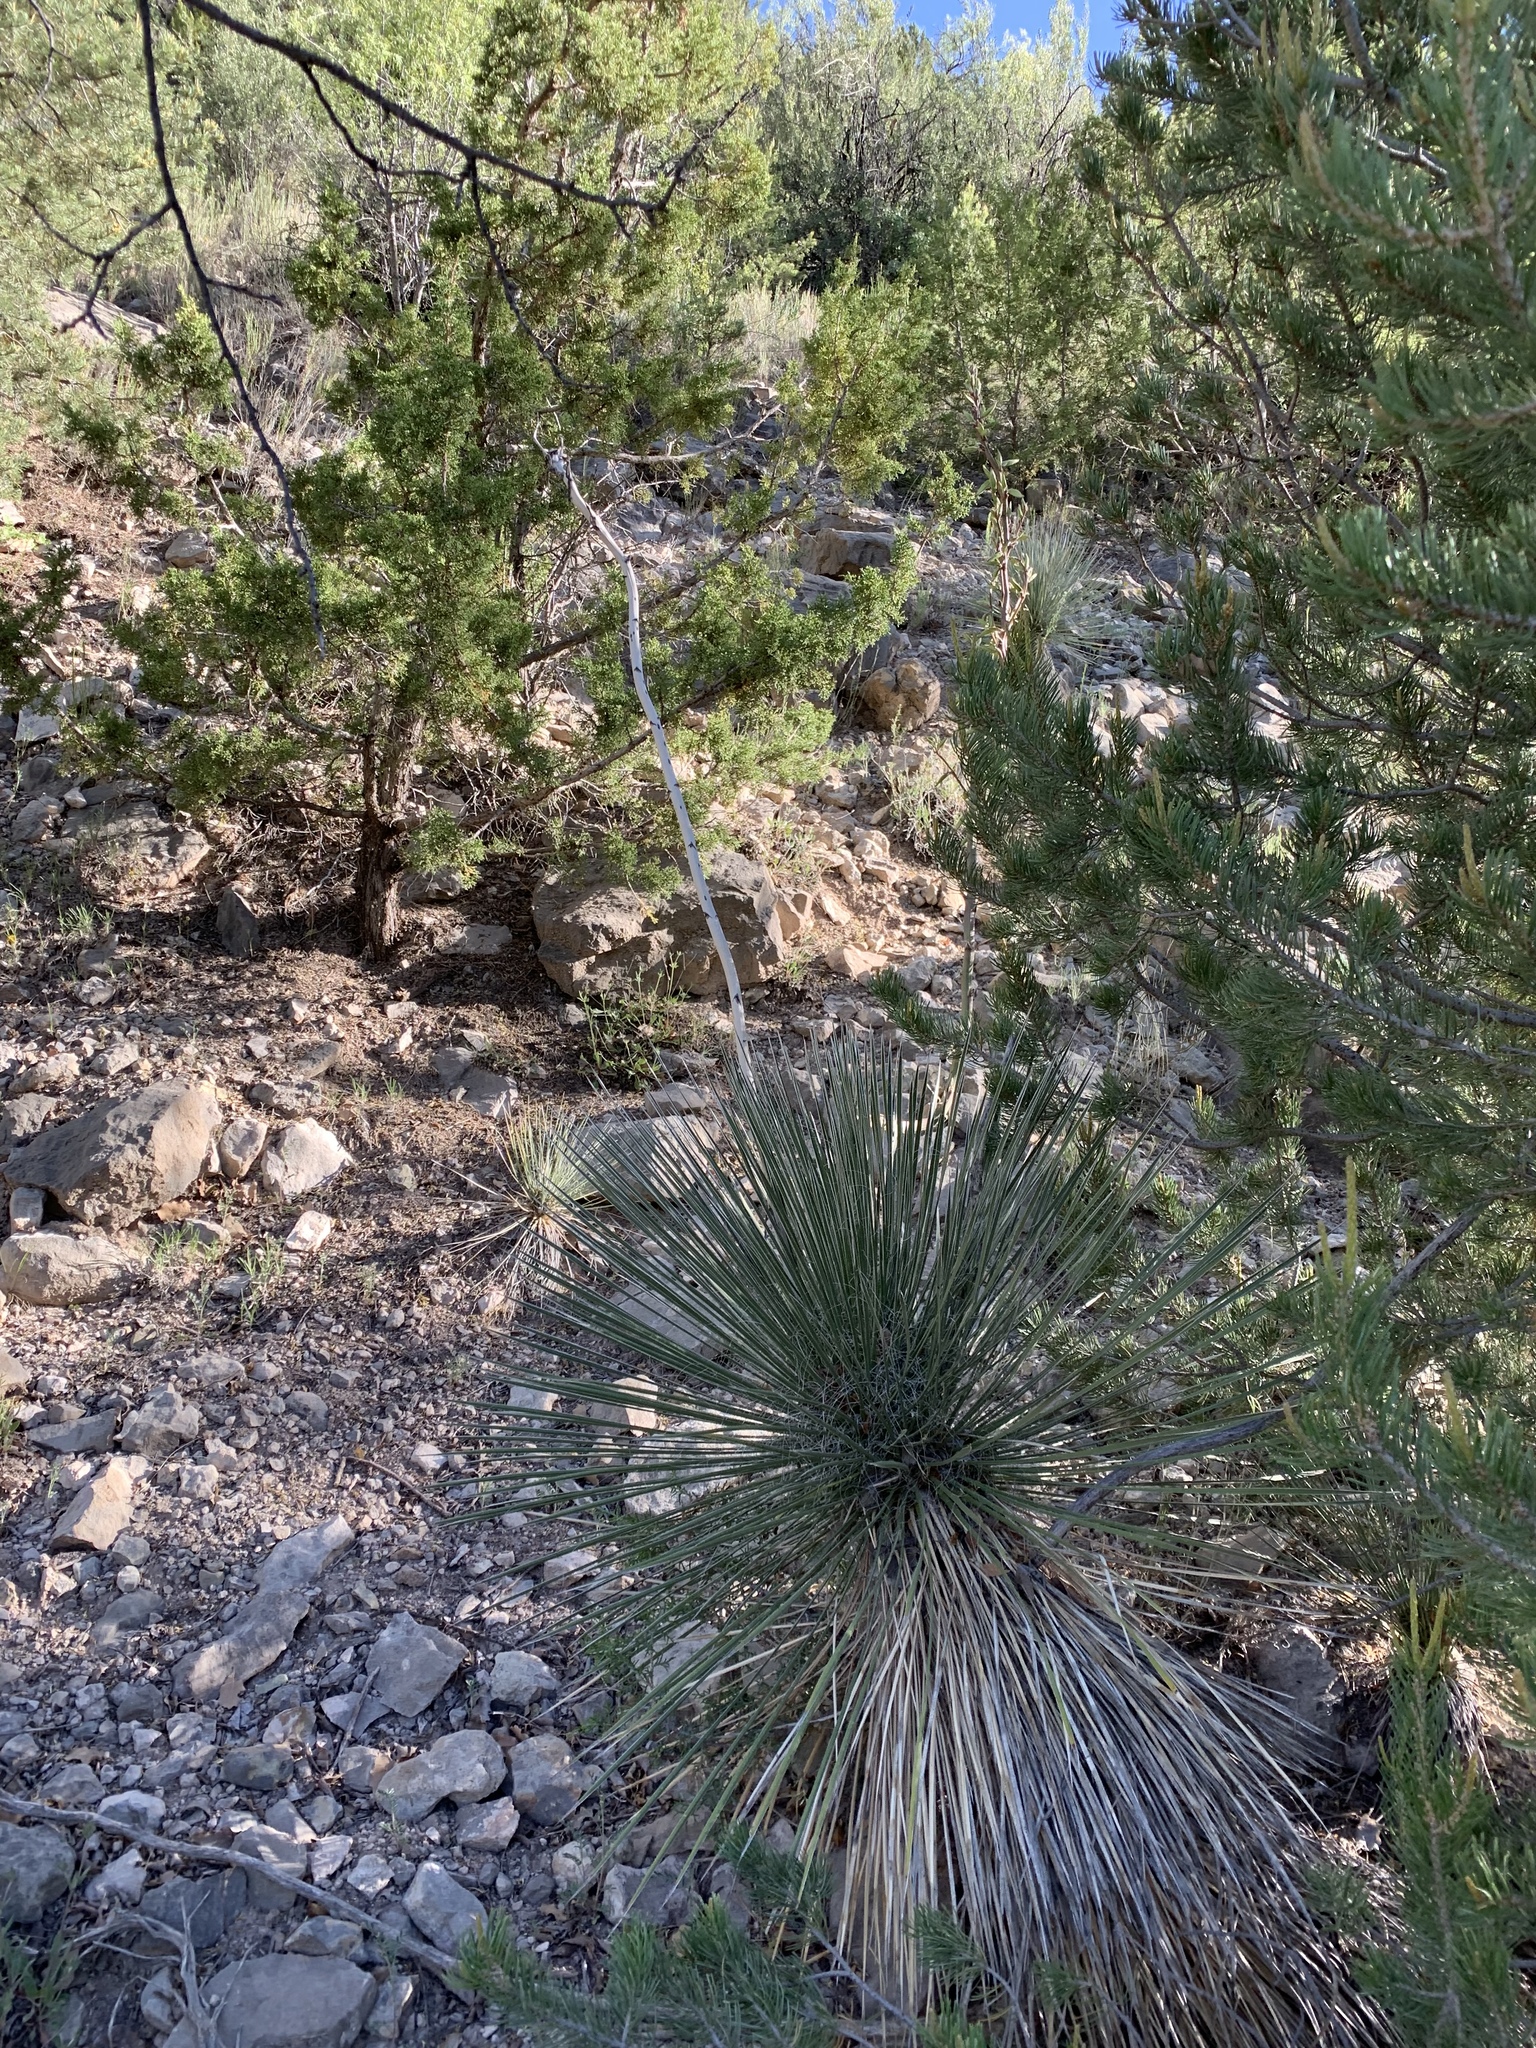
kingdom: Plantae
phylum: Tracheophyta
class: Liliopsida
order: Asparagales
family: Asparagaceae
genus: Yucca
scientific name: Yucca elata
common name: Palmella
